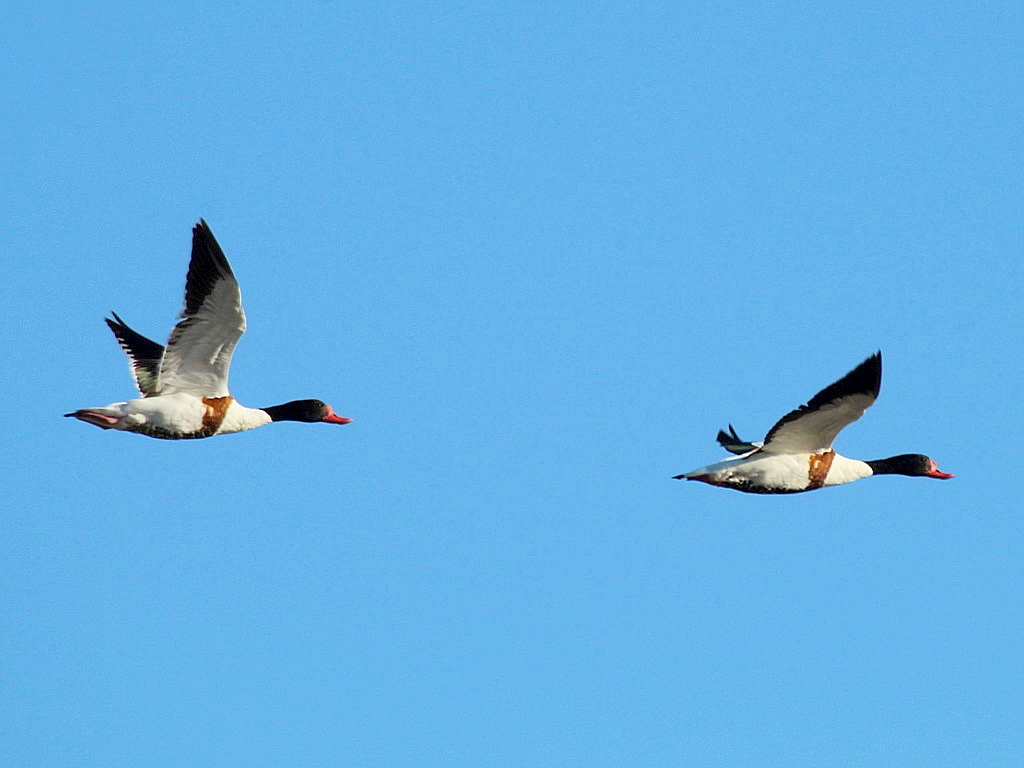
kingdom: Animalia
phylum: Chordata
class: Aves
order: Anseriformes
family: Anatidae
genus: Tadorna
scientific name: Tadorna tadorna
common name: Common shelduck
